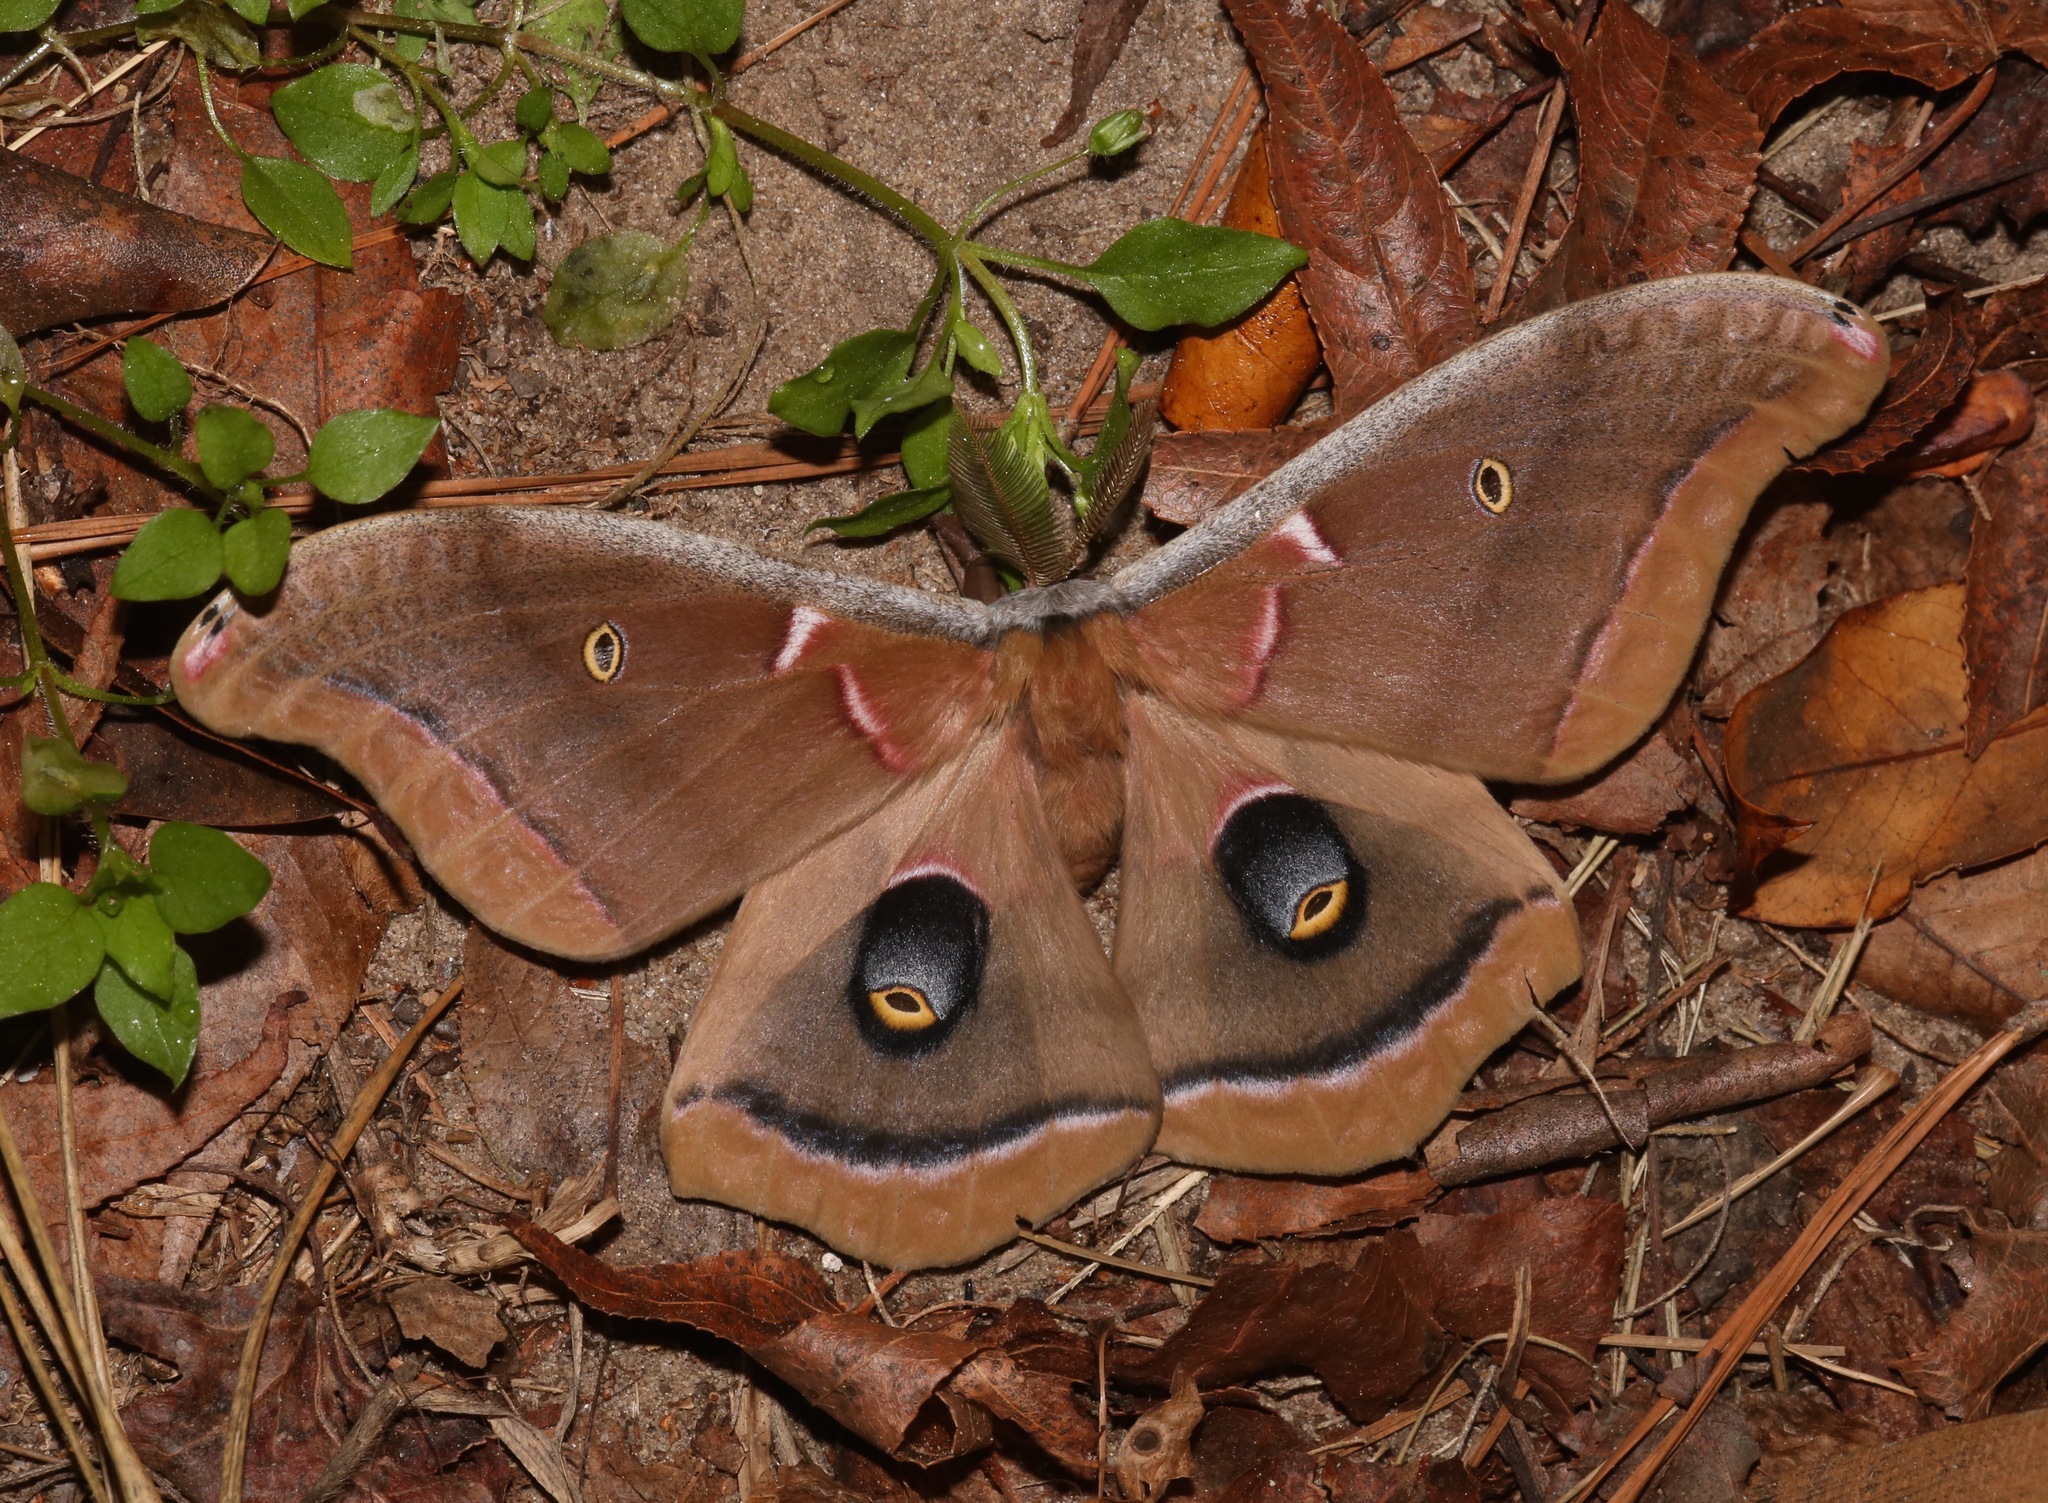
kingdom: Animalia
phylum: Arthropoda
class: Insecta
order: Lepidoptera
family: Saturniidae
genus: Antheraea
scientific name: Antheraea polyphemus
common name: Polyphemus moth
